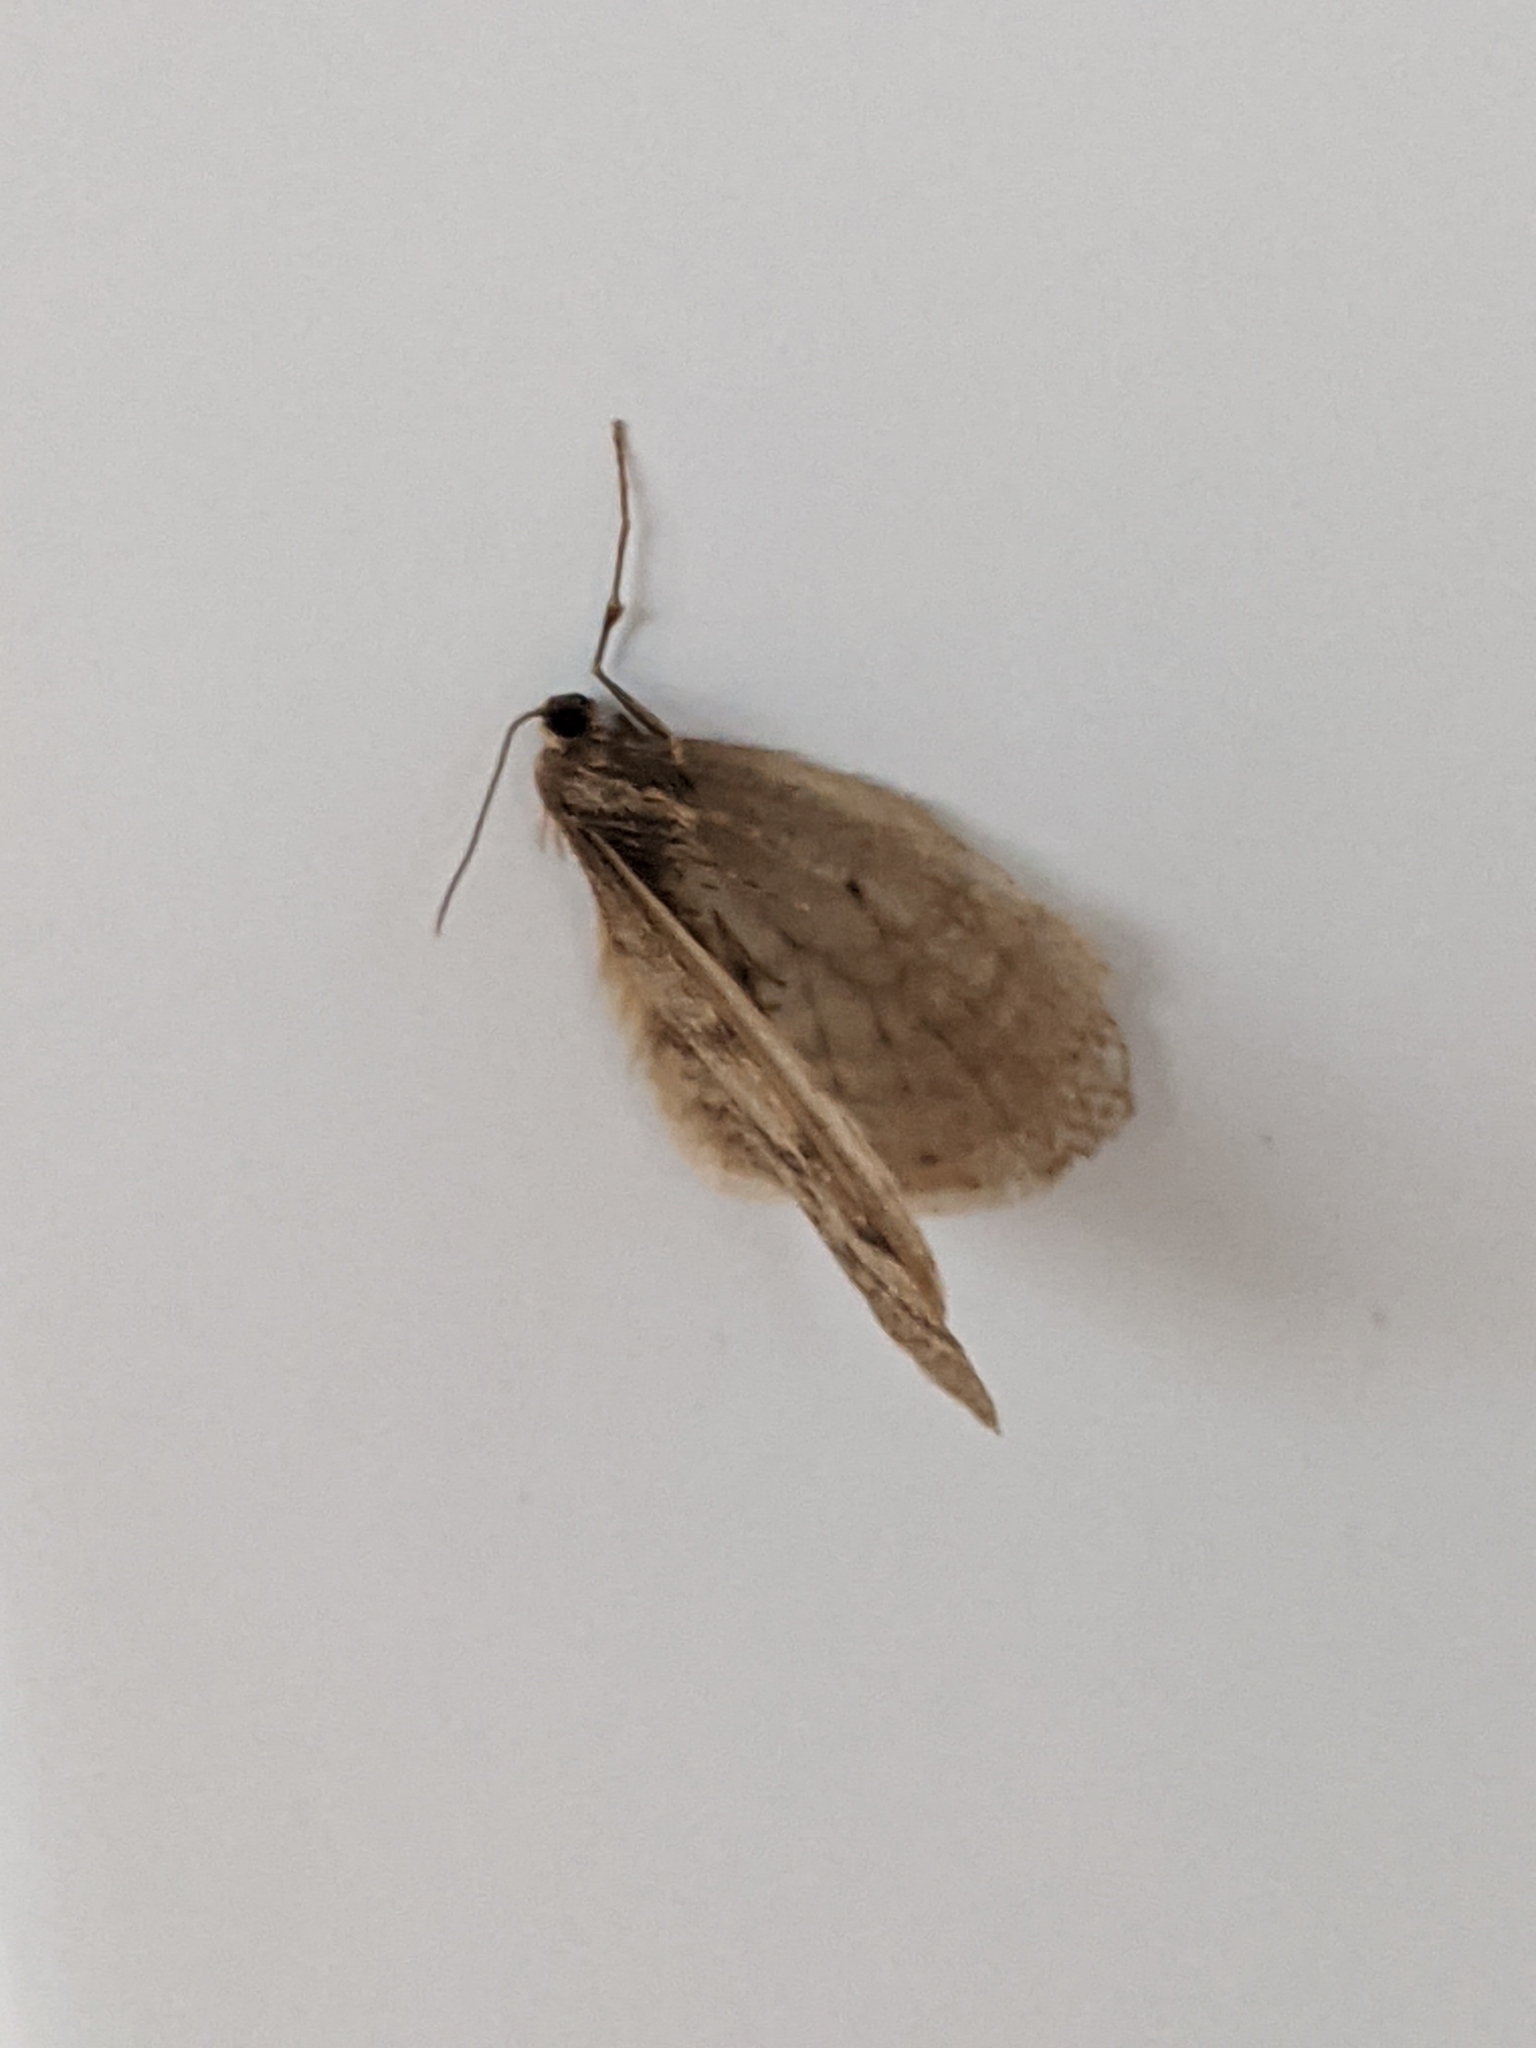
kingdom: Animalia
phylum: Arthropoda
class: Insecta
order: Lepidoptera
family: Geometridae
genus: Operophtera
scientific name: Operophtera bruceata
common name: Bruce spanworm
